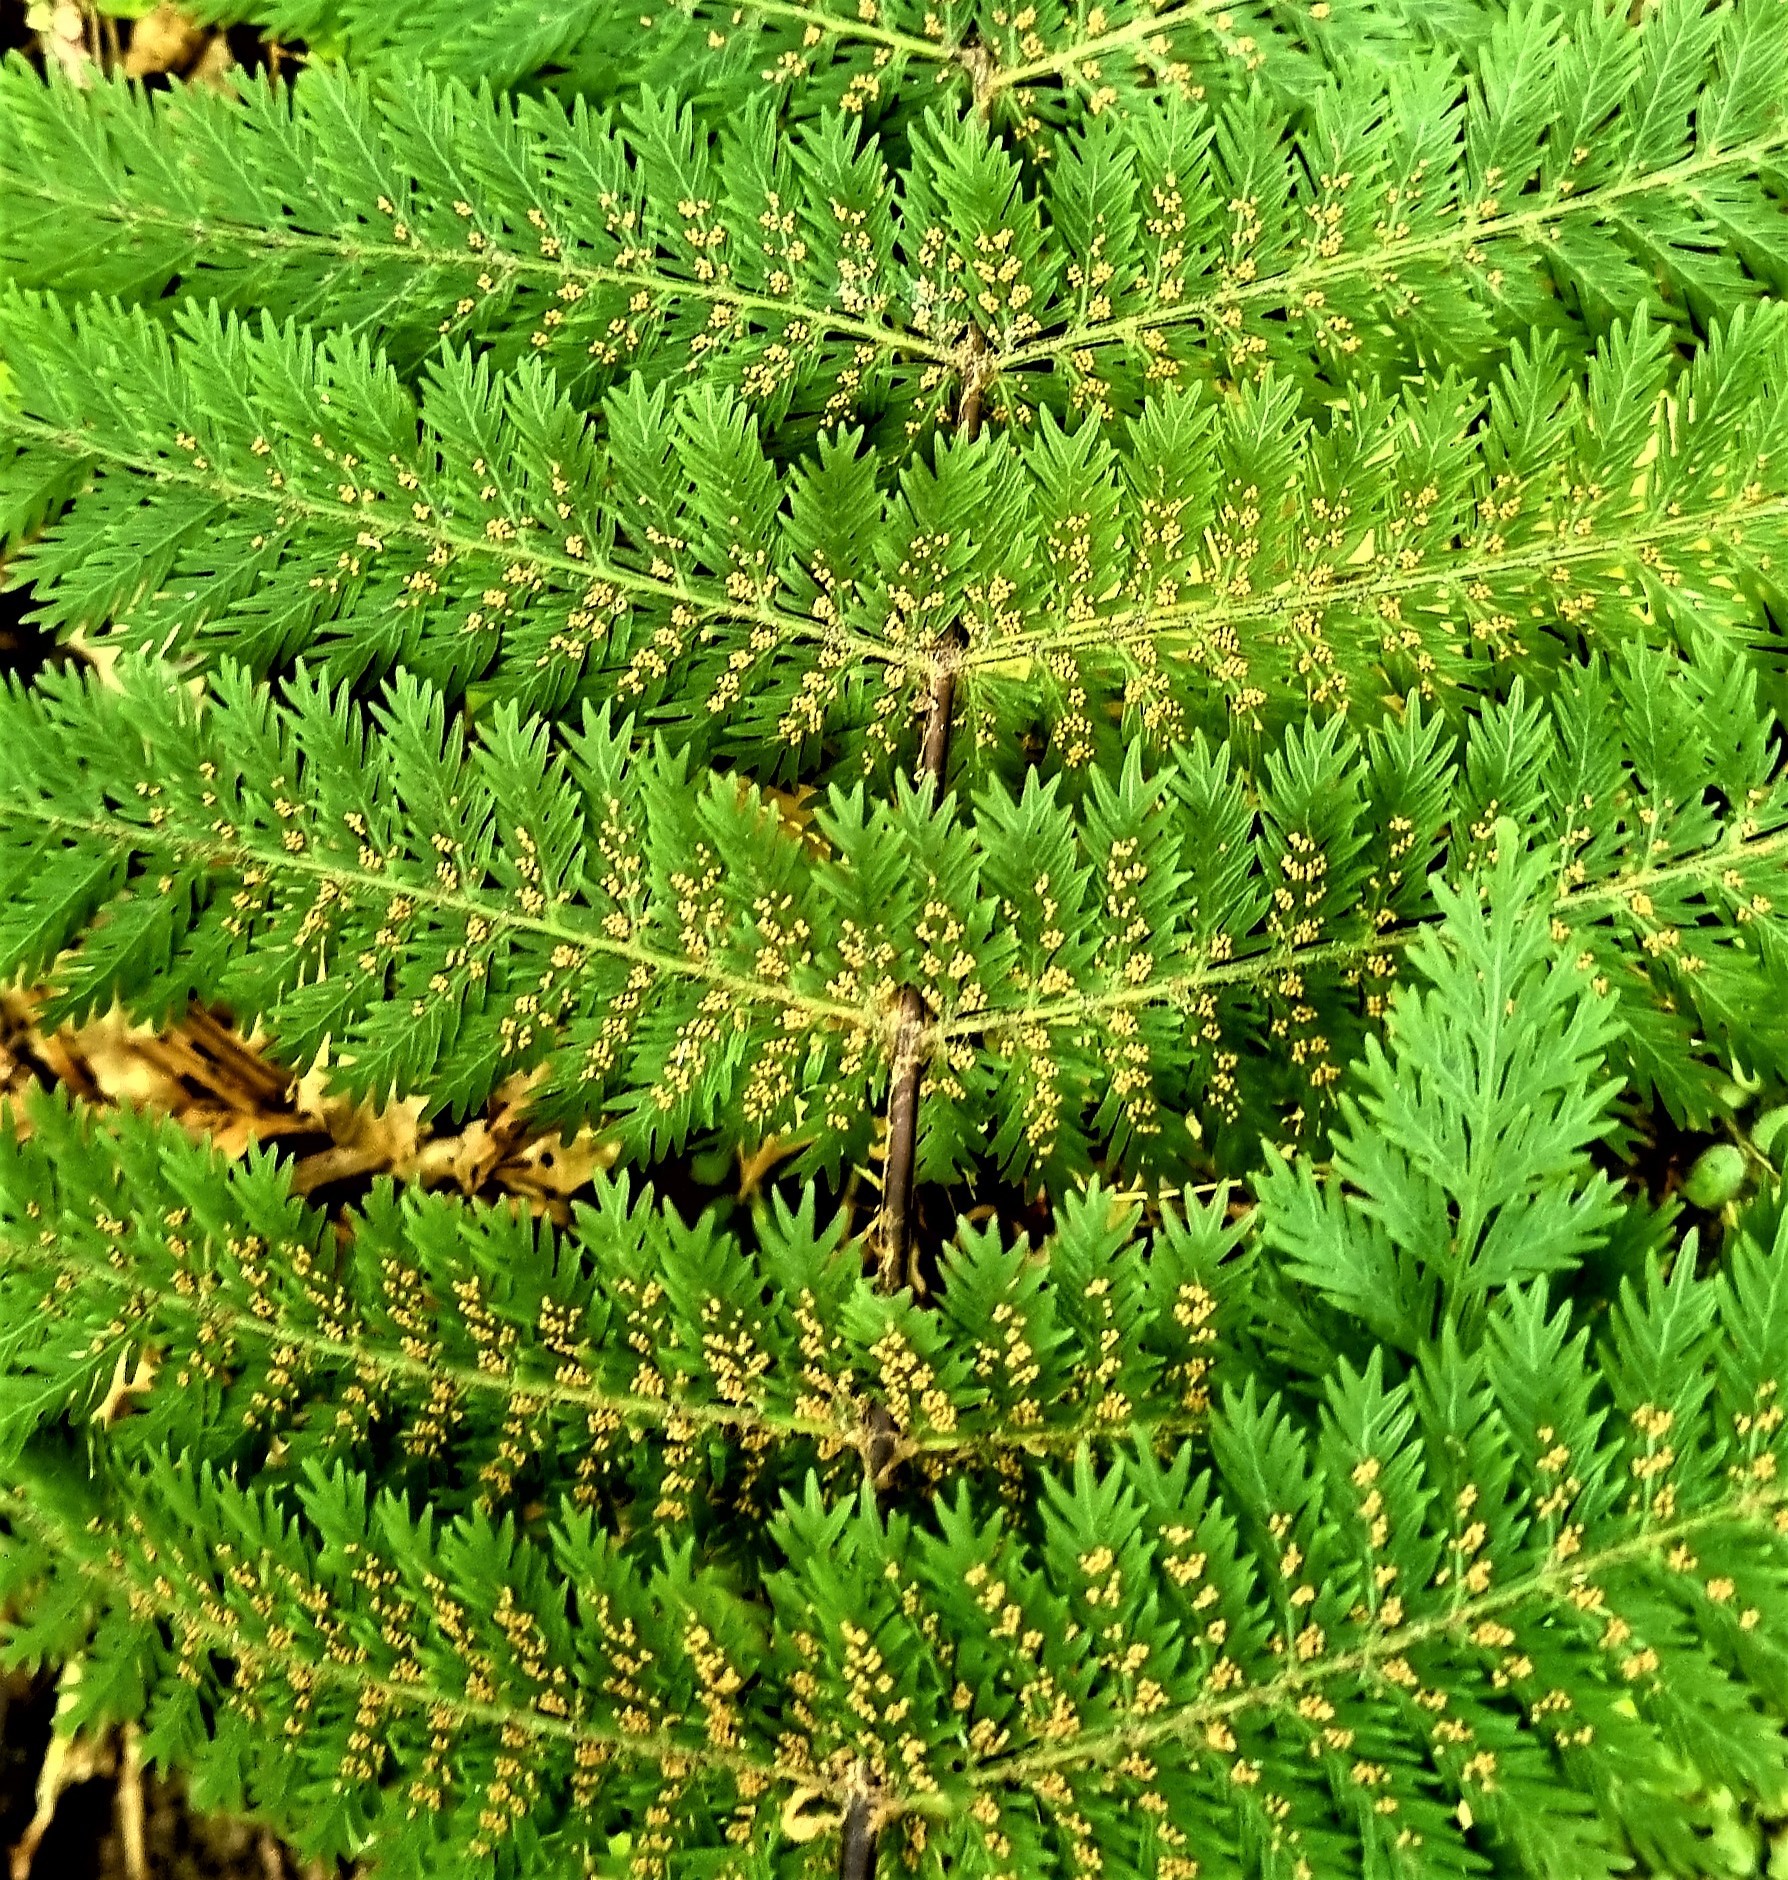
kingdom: Plantae
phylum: Tracheophyta
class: Polypodiopsida
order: Osmundales
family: Osmundaceae
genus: Leptopteris
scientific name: Leptopteris hymenophylloides
